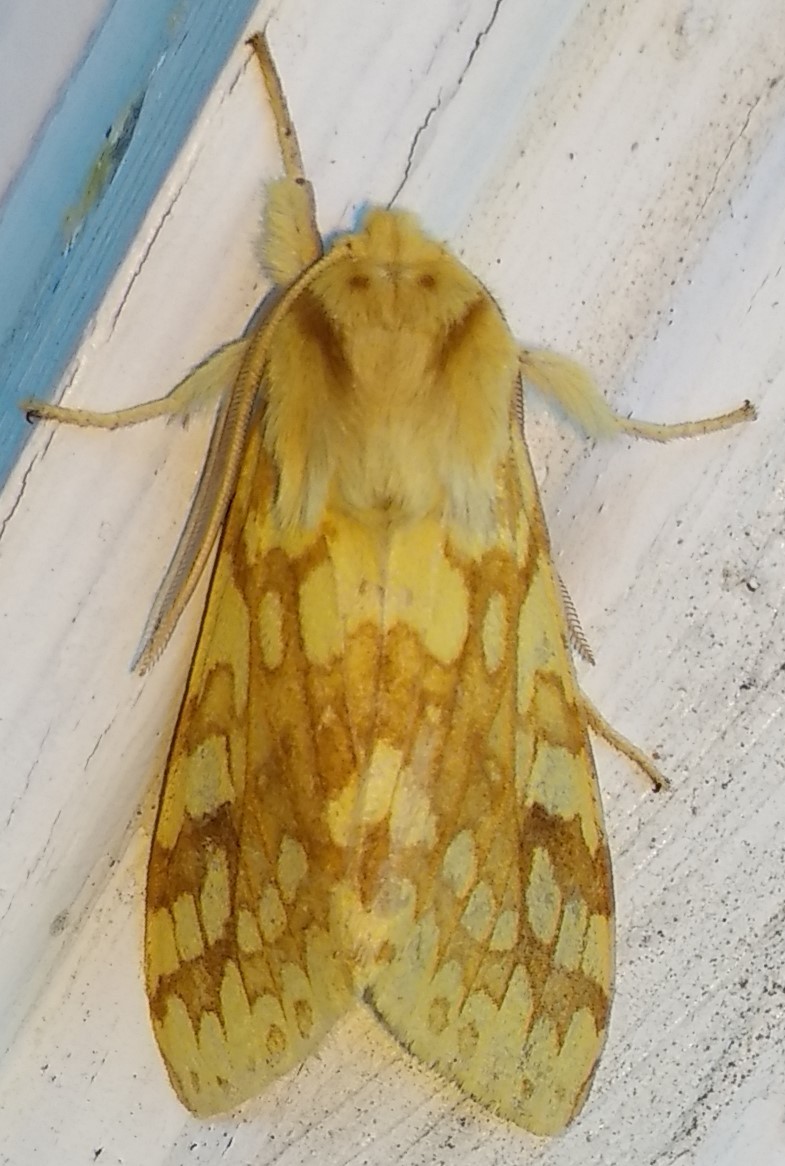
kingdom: Animalia
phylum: Arthropoda
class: Insecta
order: Lepidoptera
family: Erebidae
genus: Lophocampa
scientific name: Lophocampa maculata
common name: Spotted tussock moth
